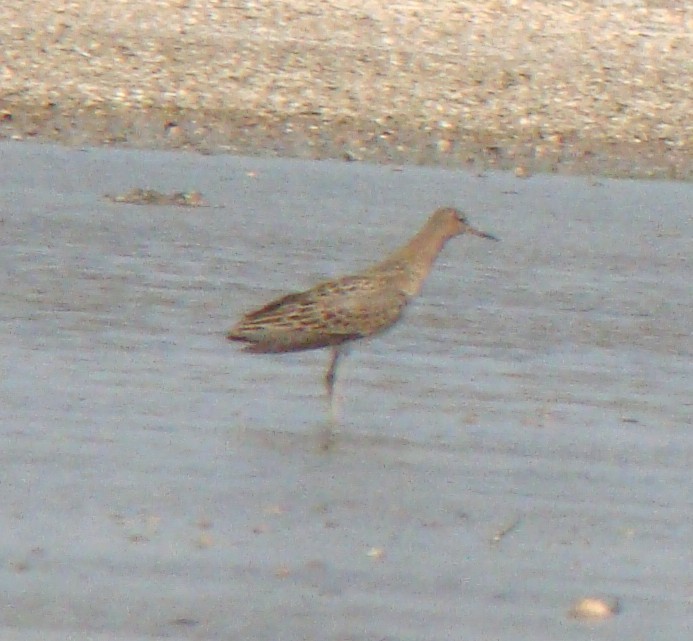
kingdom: Animalia
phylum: Chordata
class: Aves
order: Charadriiformes
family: Scolopacidae
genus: Calidris
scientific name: Calidris pugnax
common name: Ruff
